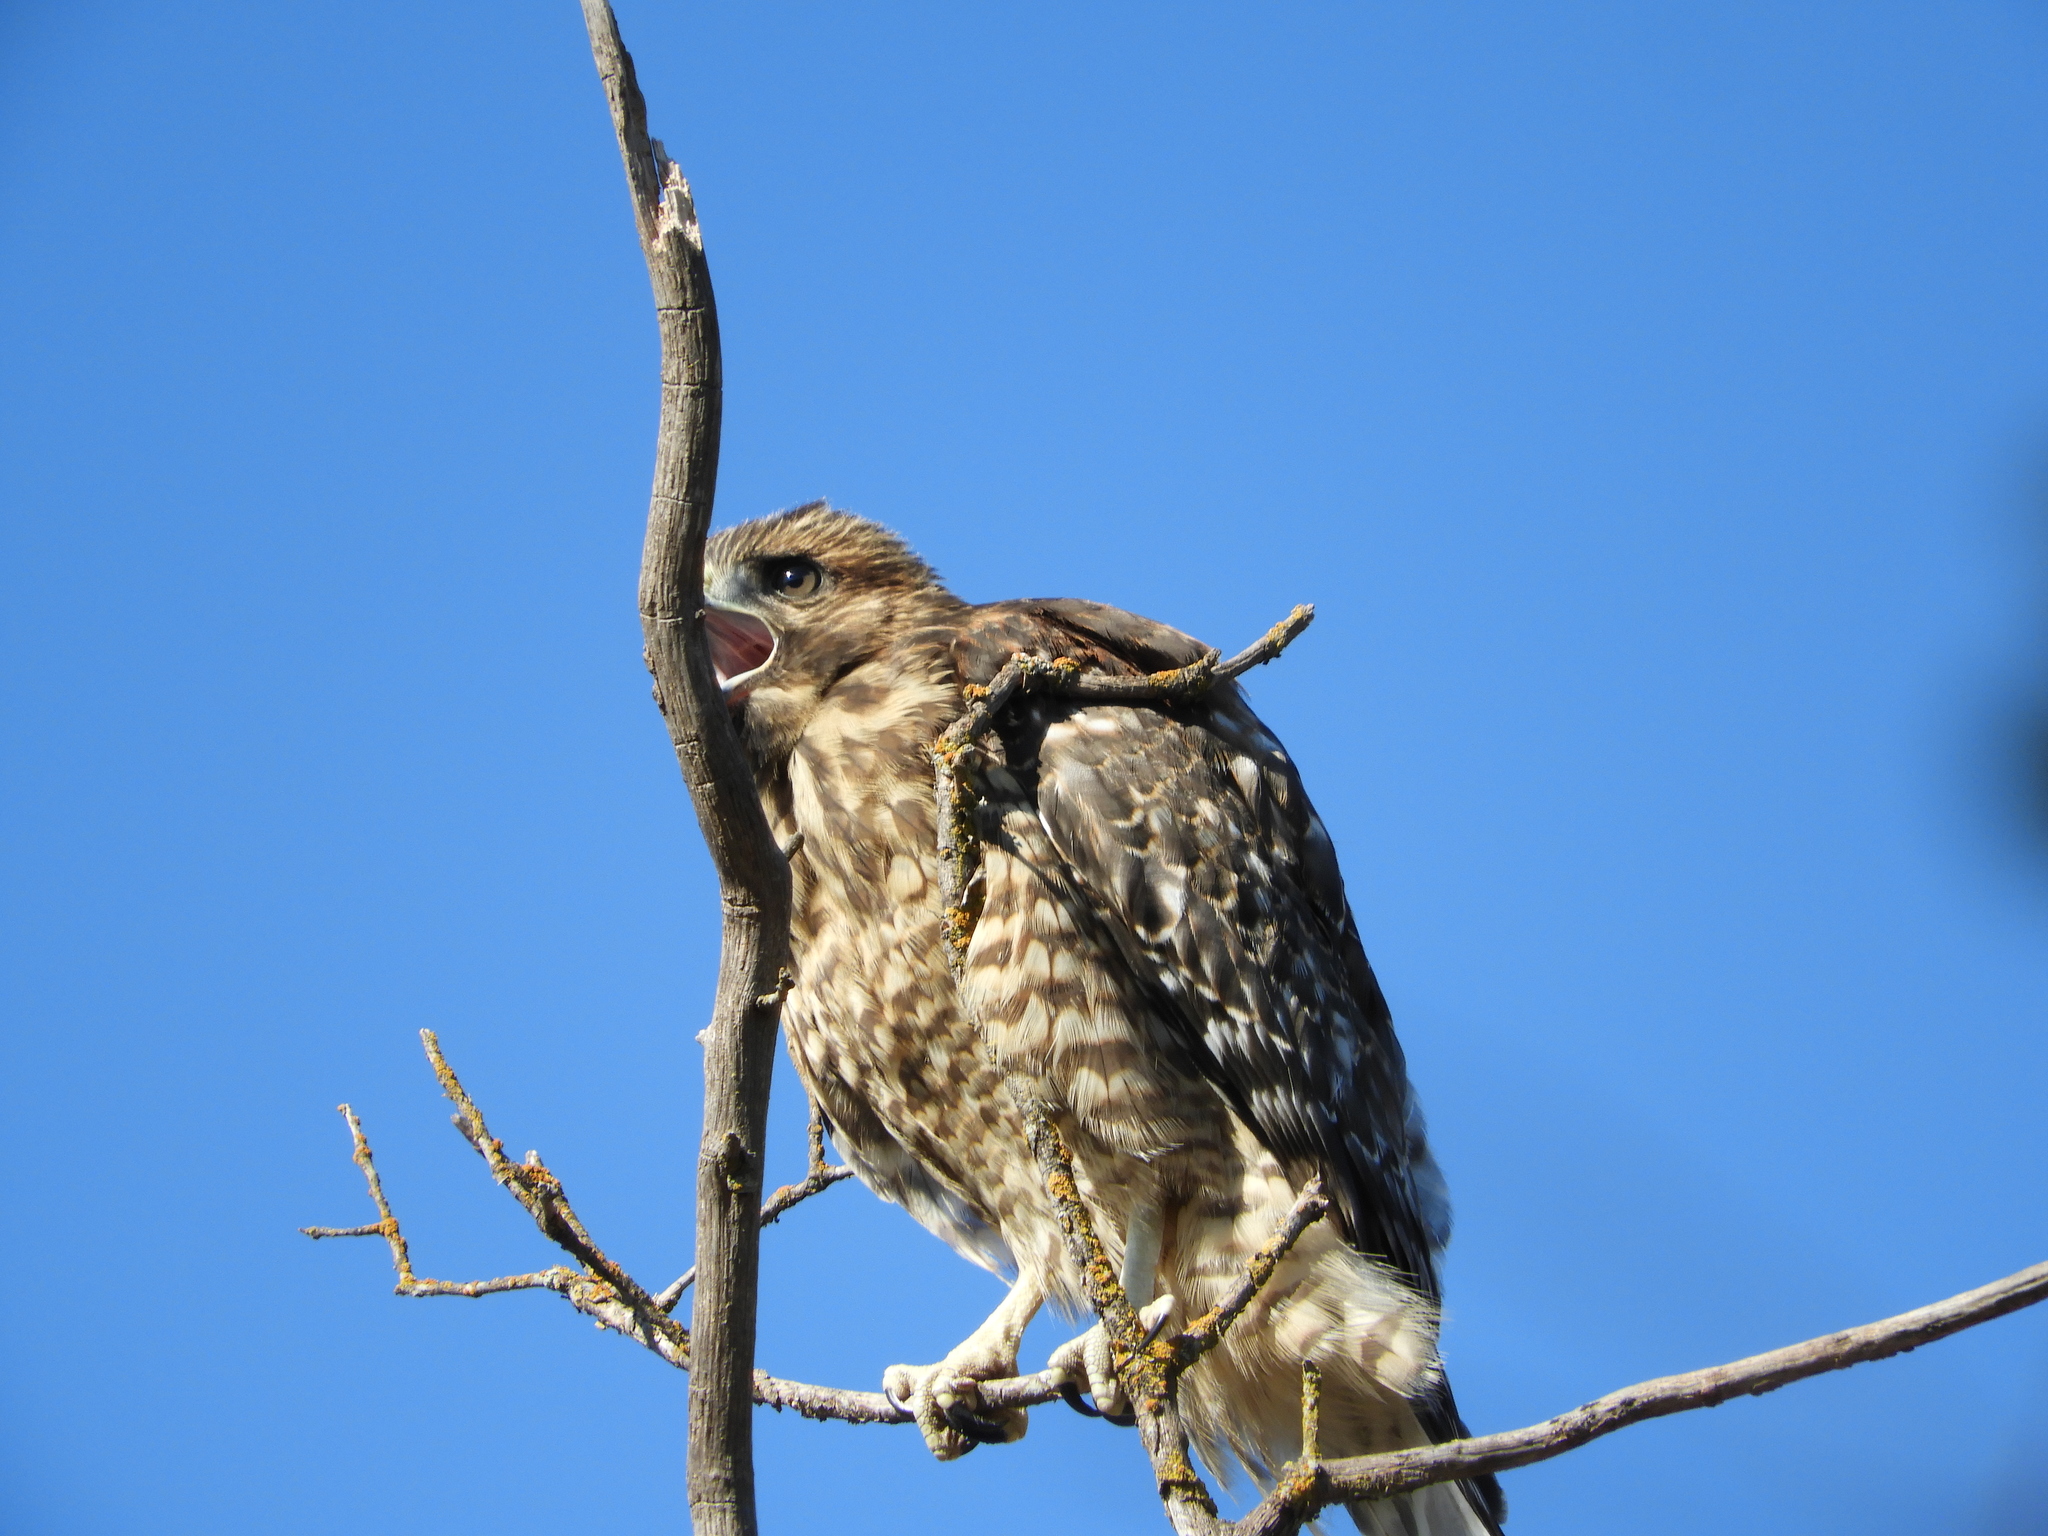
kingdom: Animalia
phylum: Chordata
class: Aves
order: Accipitriformes
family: Accipitridae
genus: Buteo
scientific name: Buteo lineatus
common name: Red-shouldered hawk
